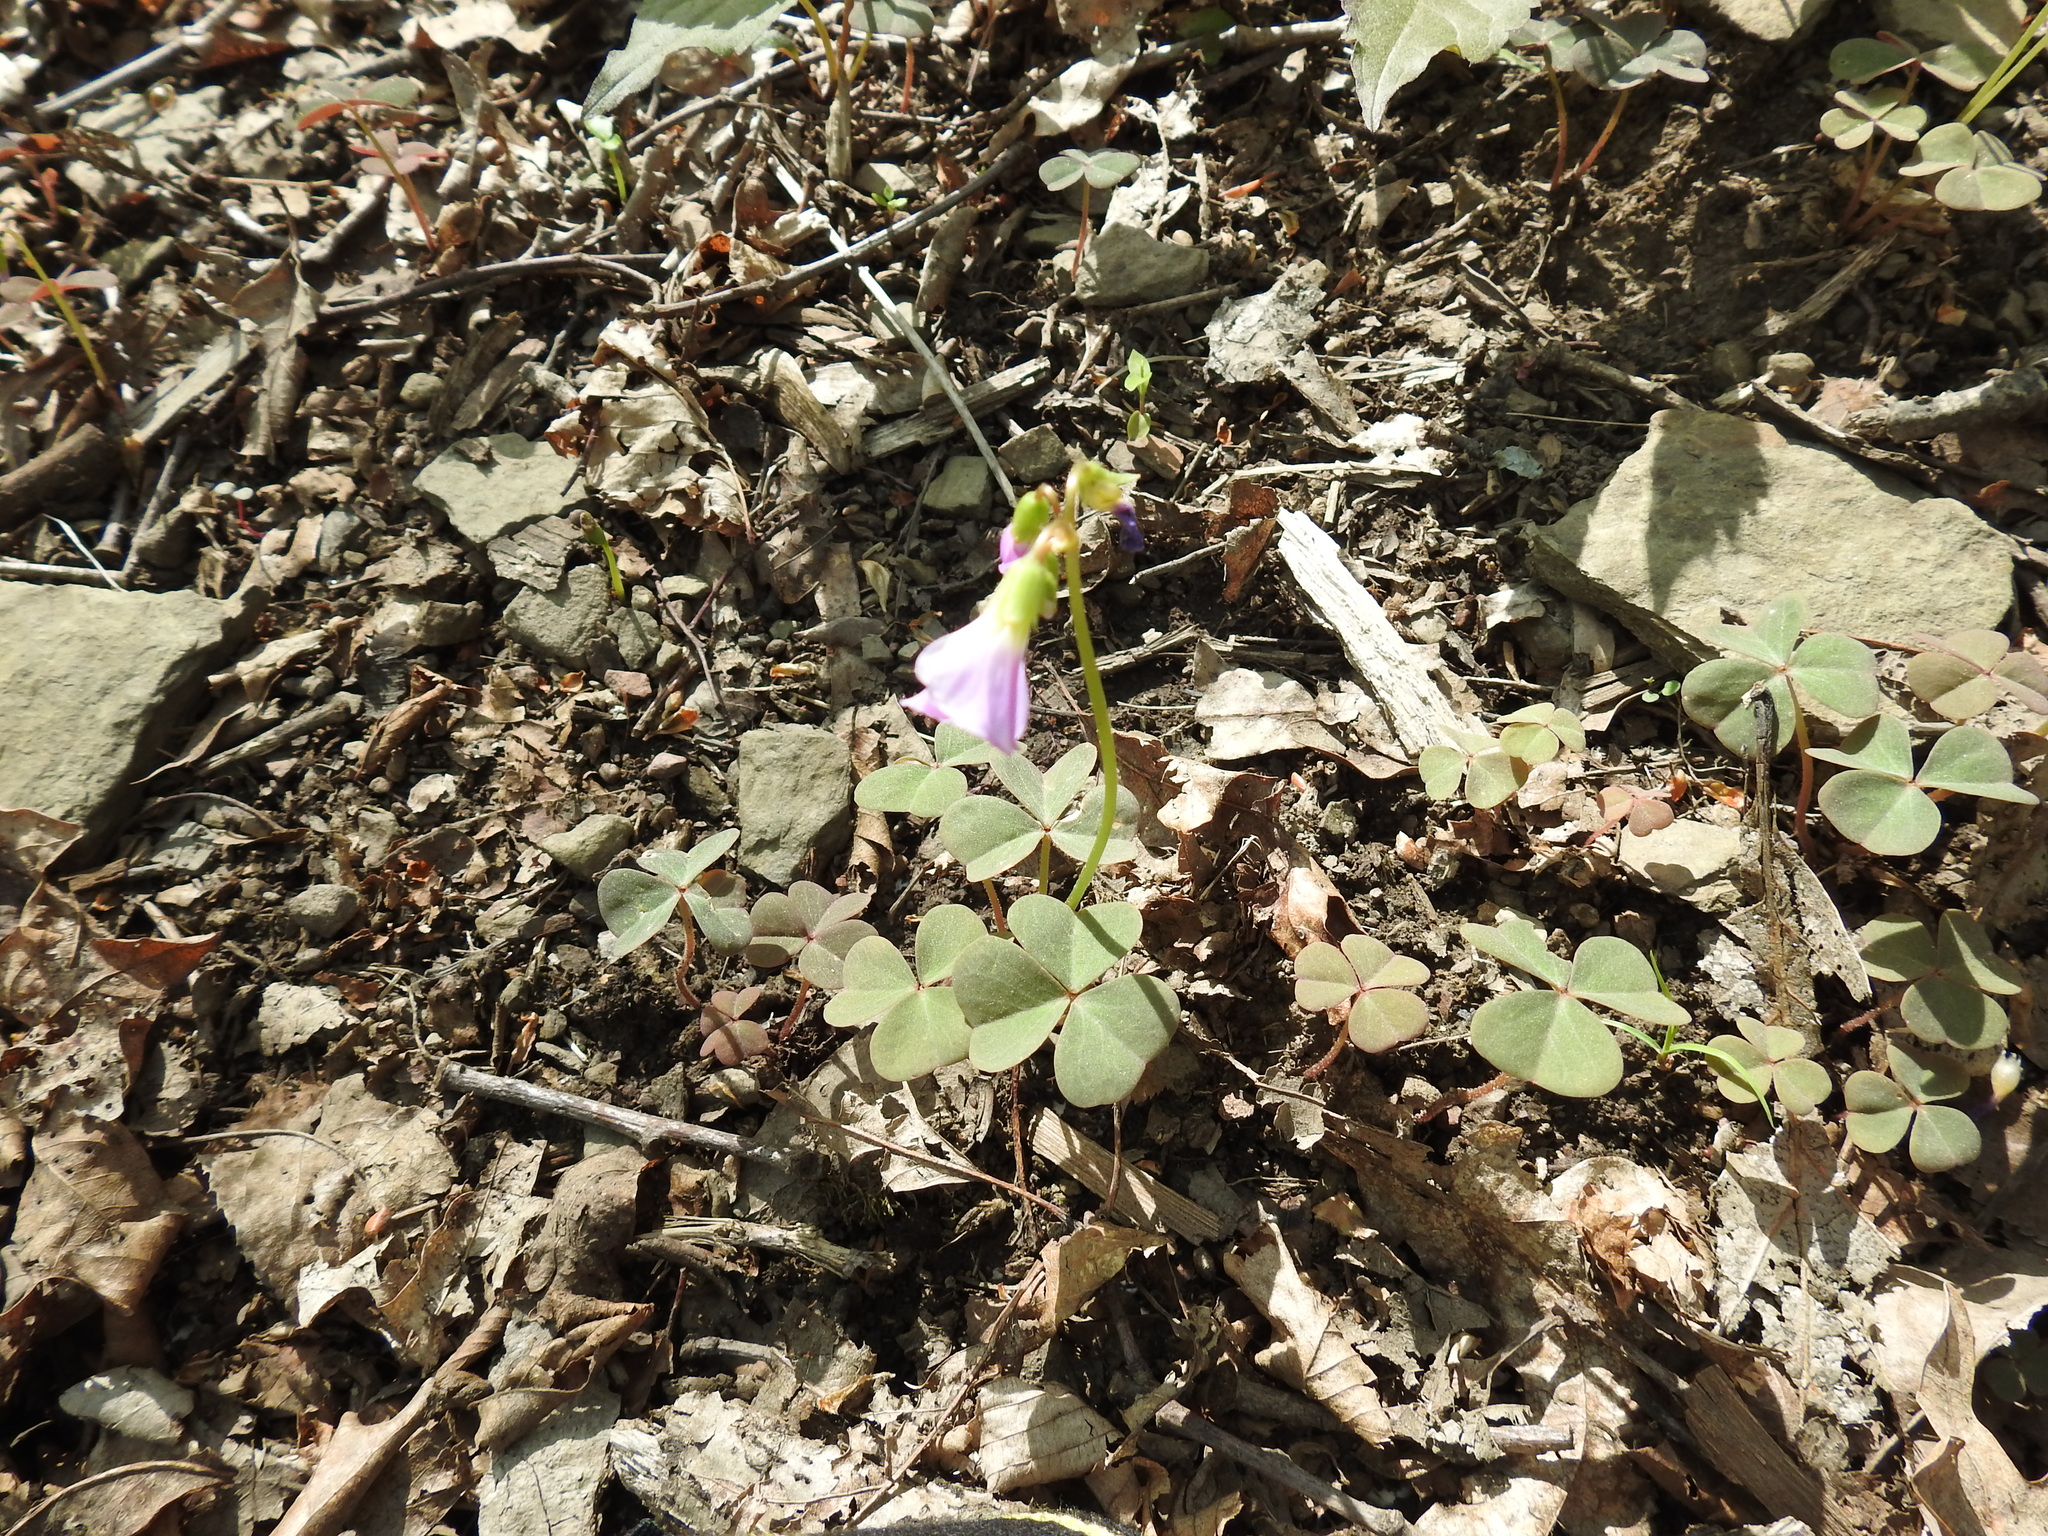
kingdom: Plantae
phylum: Tracheophyta
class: Magnoliopsida
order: Oxalidales
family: Oxalidaceae
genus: Oxalis
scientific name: Oxalis violacea
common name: Violet wood-sorrel
